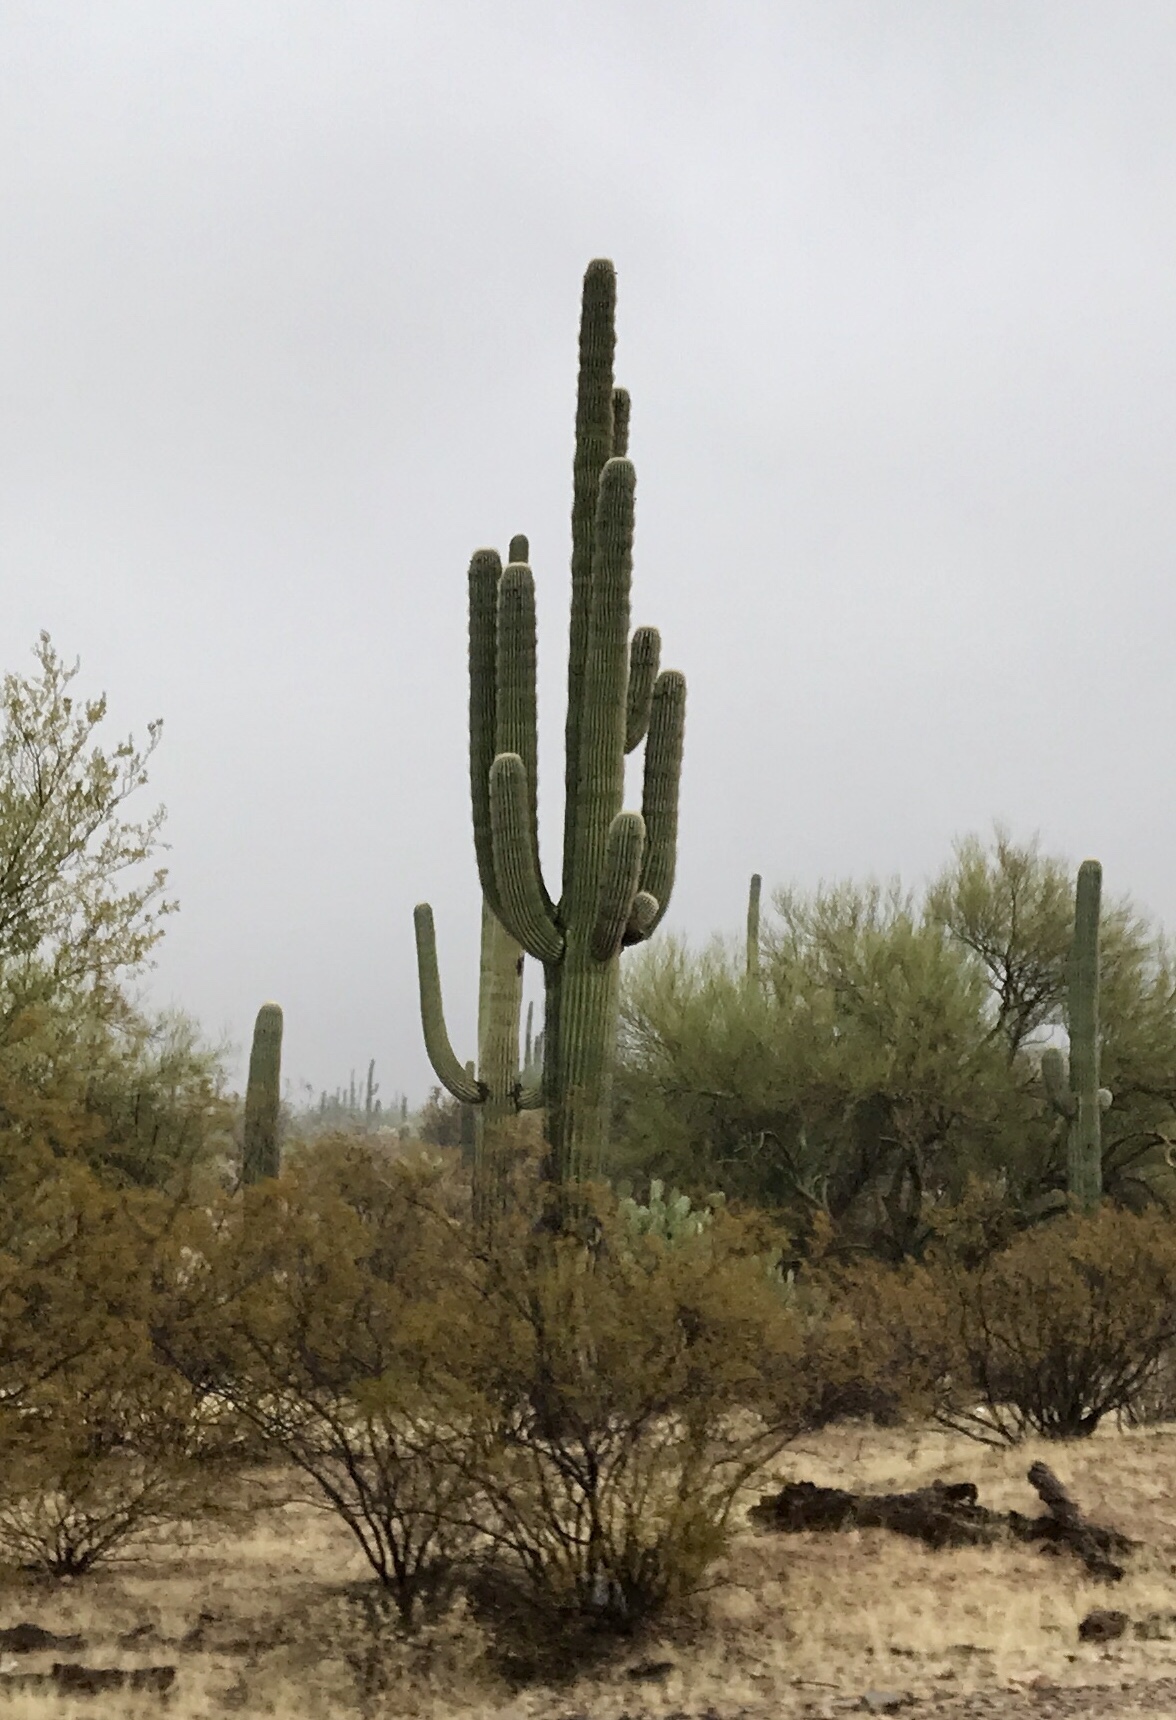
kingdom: Plantae
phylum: Tracheophyta
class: Magnoliopsida
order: Caryophyllales
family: Cactaceae
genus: Carnegiea
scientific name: Carnegiea gigantea
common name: Saguaro
